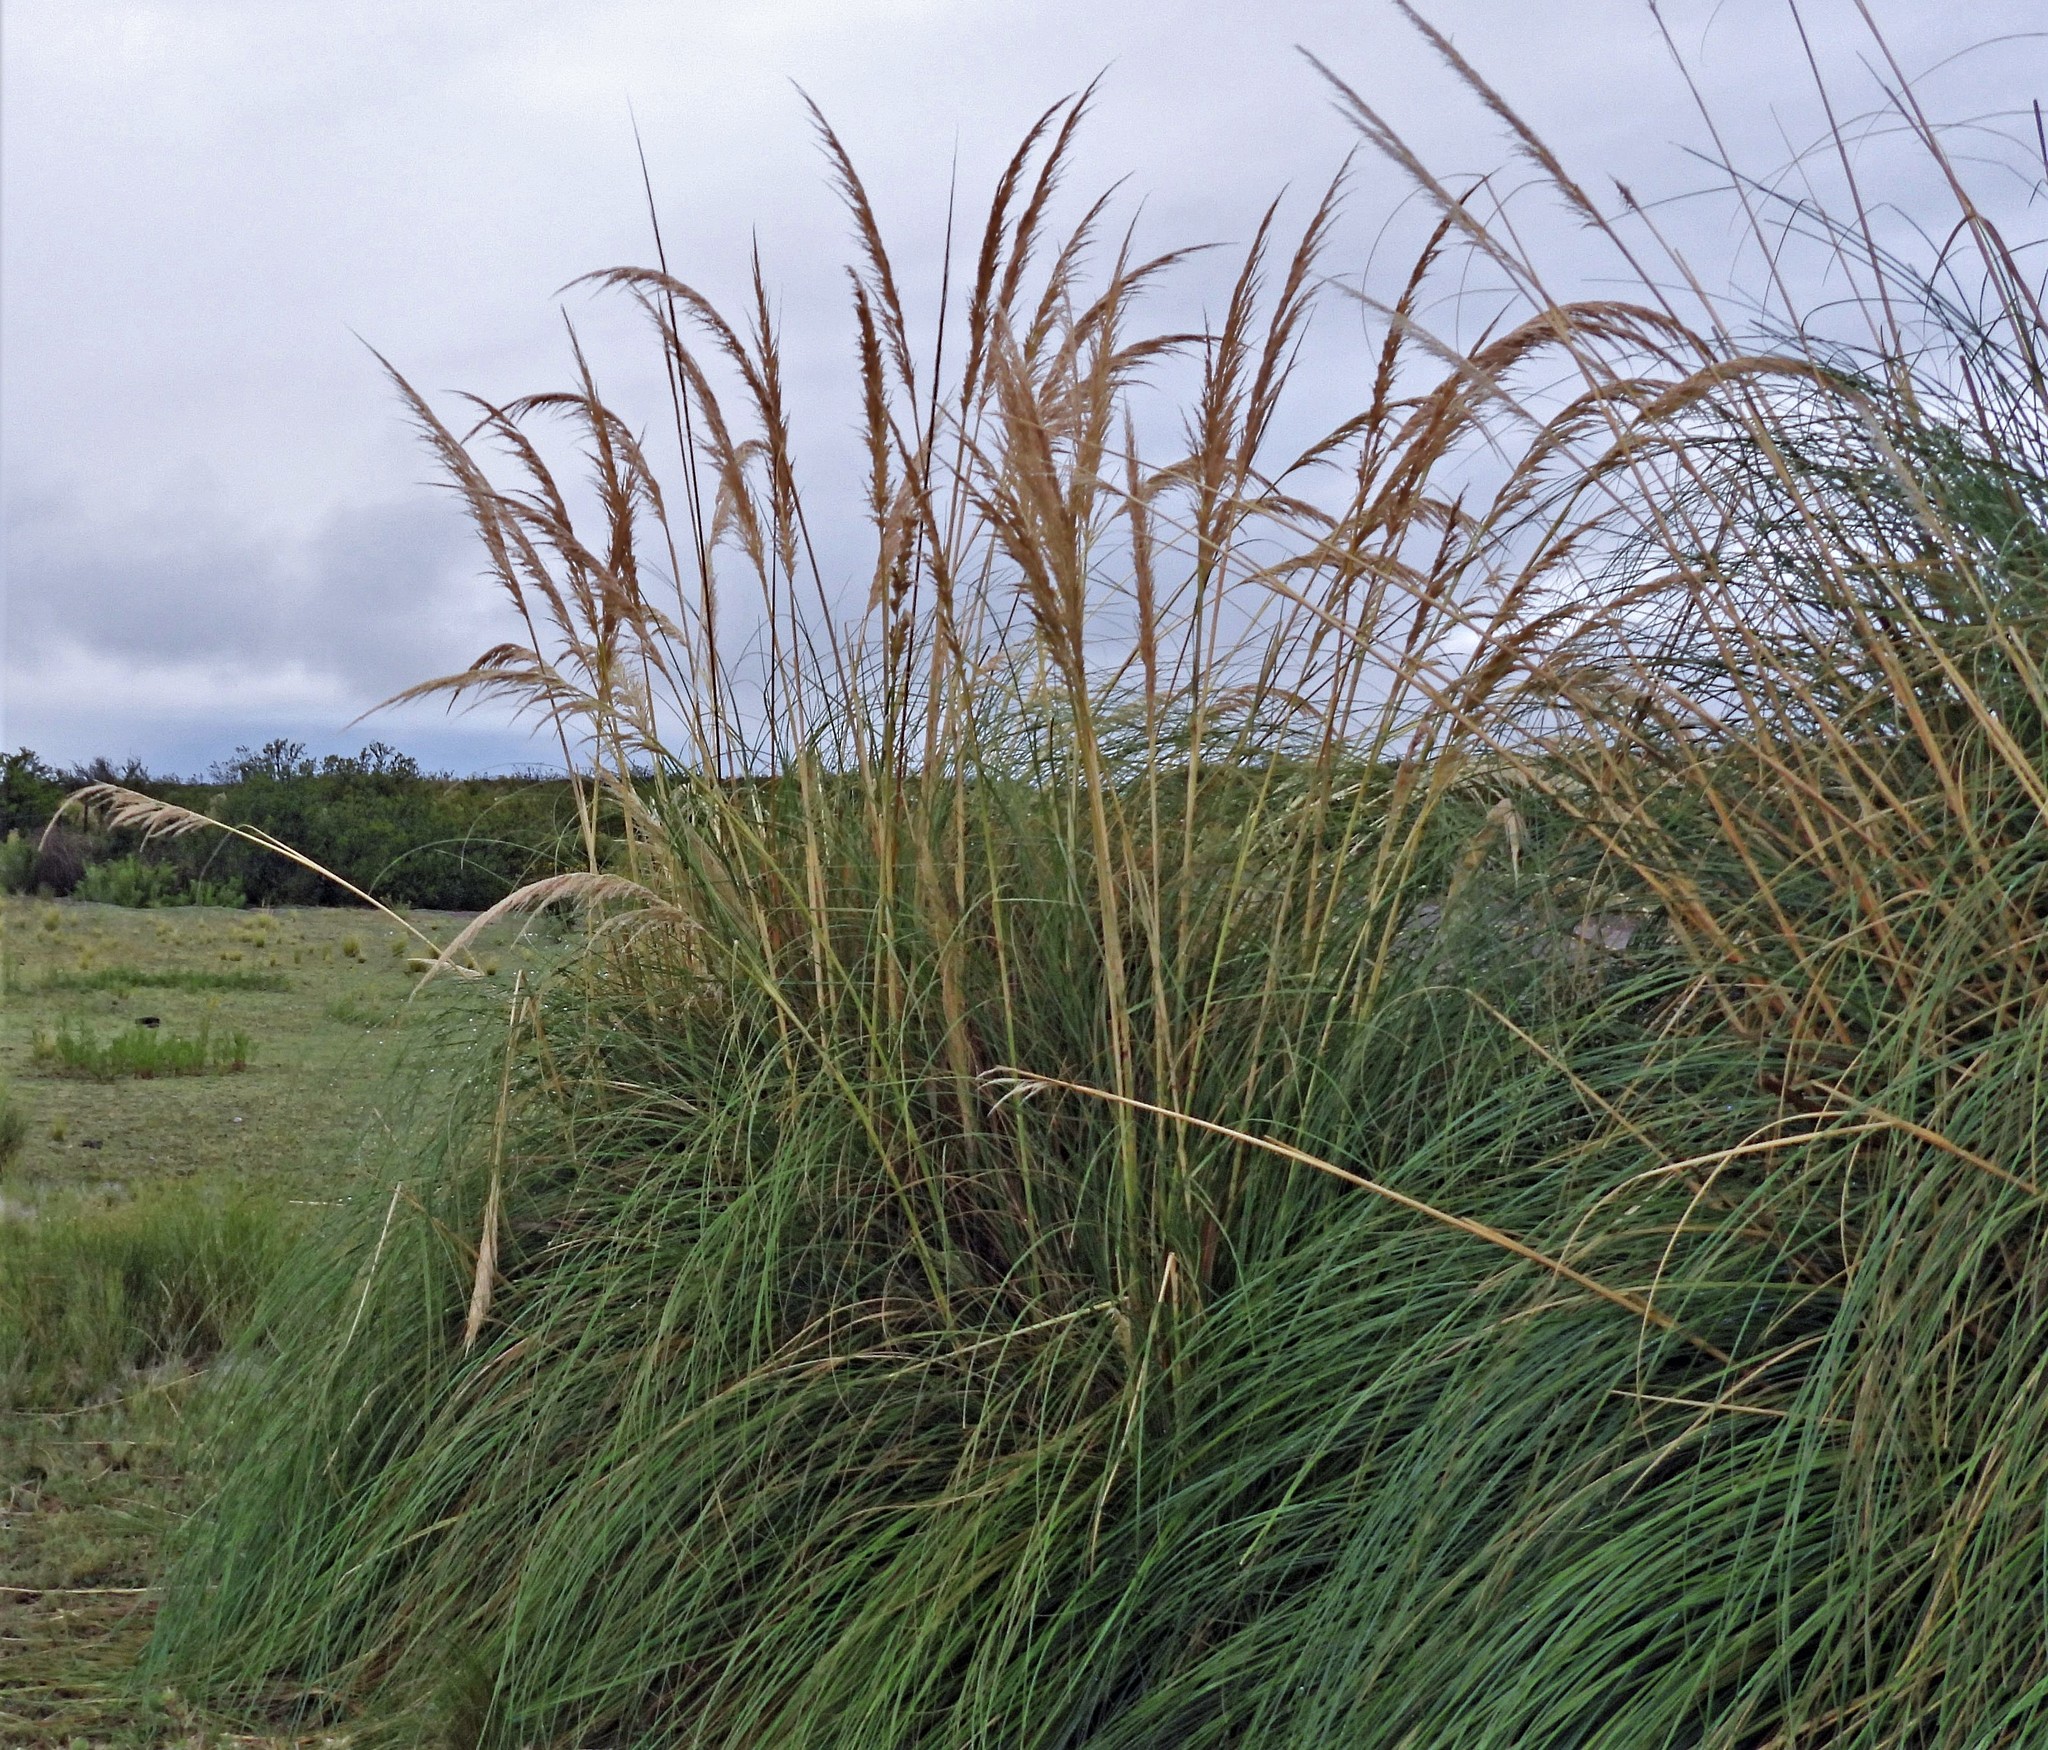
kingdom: Plantae
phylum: Tracheophyta
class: Liliopsida
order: Poales
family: Poaceae
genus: Cortaderia
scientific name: Cortaderia selloana
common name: Uruguayan pampas grass
